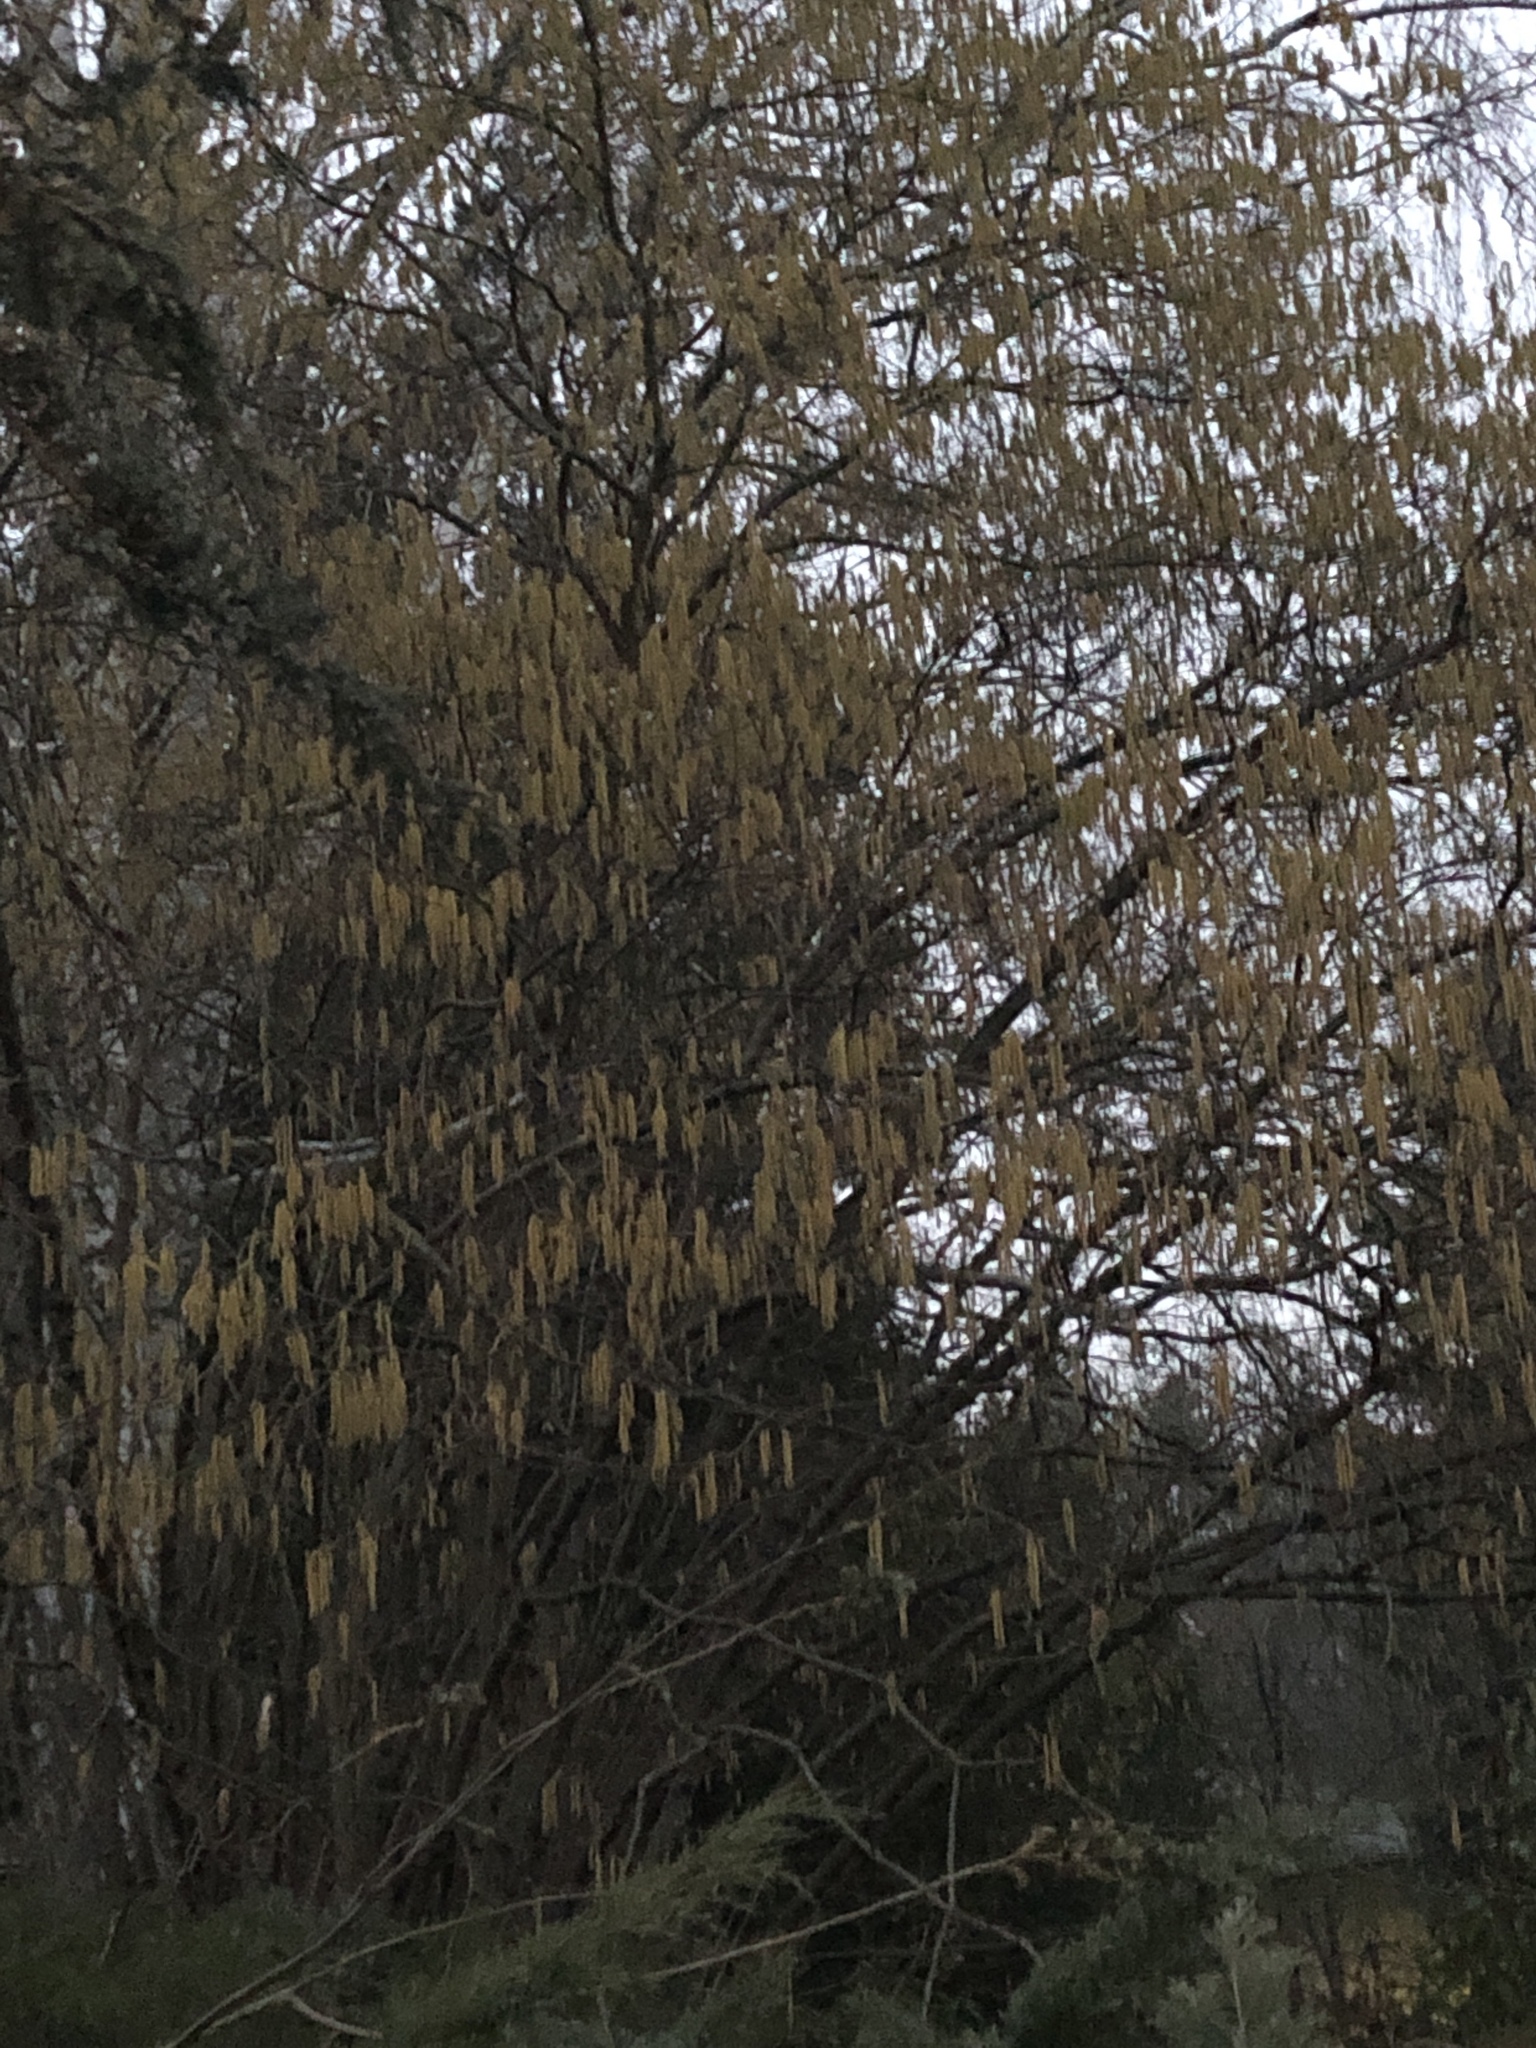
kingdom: Plantae
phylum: Tracheophyta
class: Magnoliopsida
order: Fagales
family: Betulaceae
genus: Corylus
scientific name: Corylus avellana
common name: European hazel
